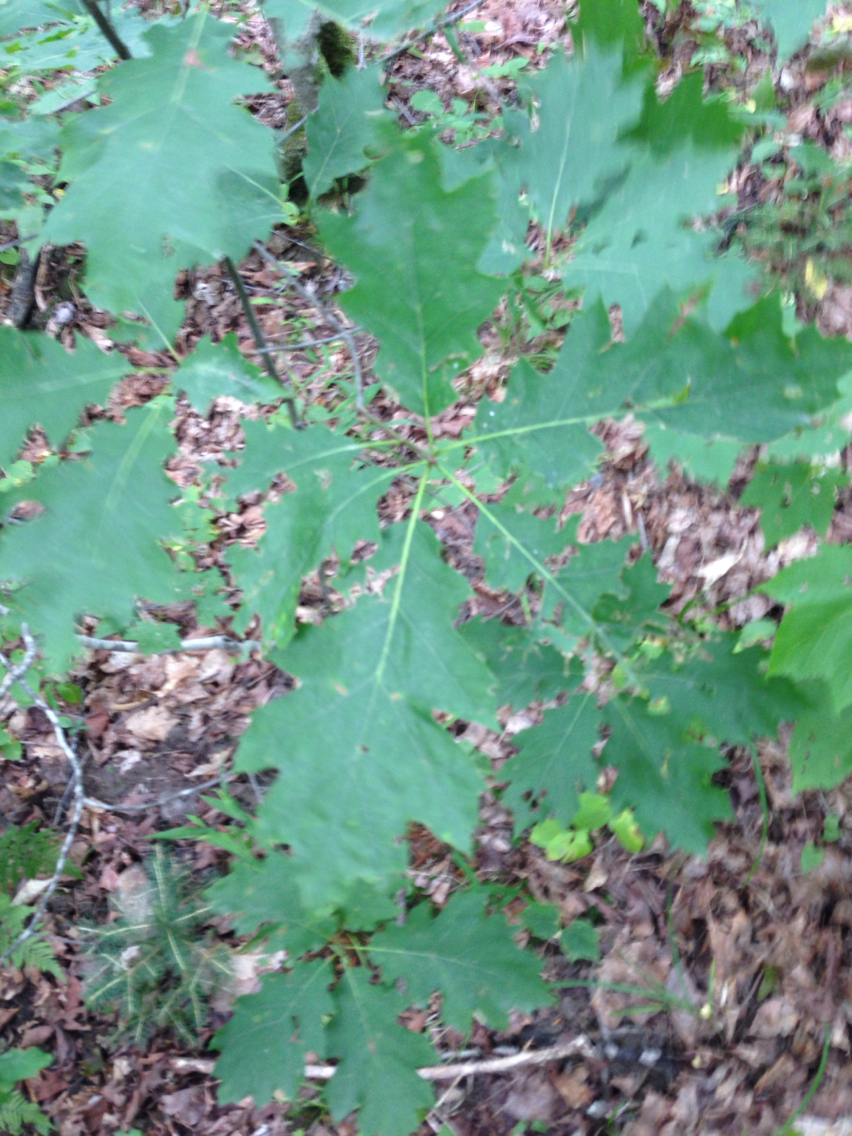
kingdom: Plantae
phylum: Tracheophyta
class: Magnoliopsida
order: Fagales
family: Fagaceae
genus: Quercus
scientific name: Quercus rubra
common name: Red oak
